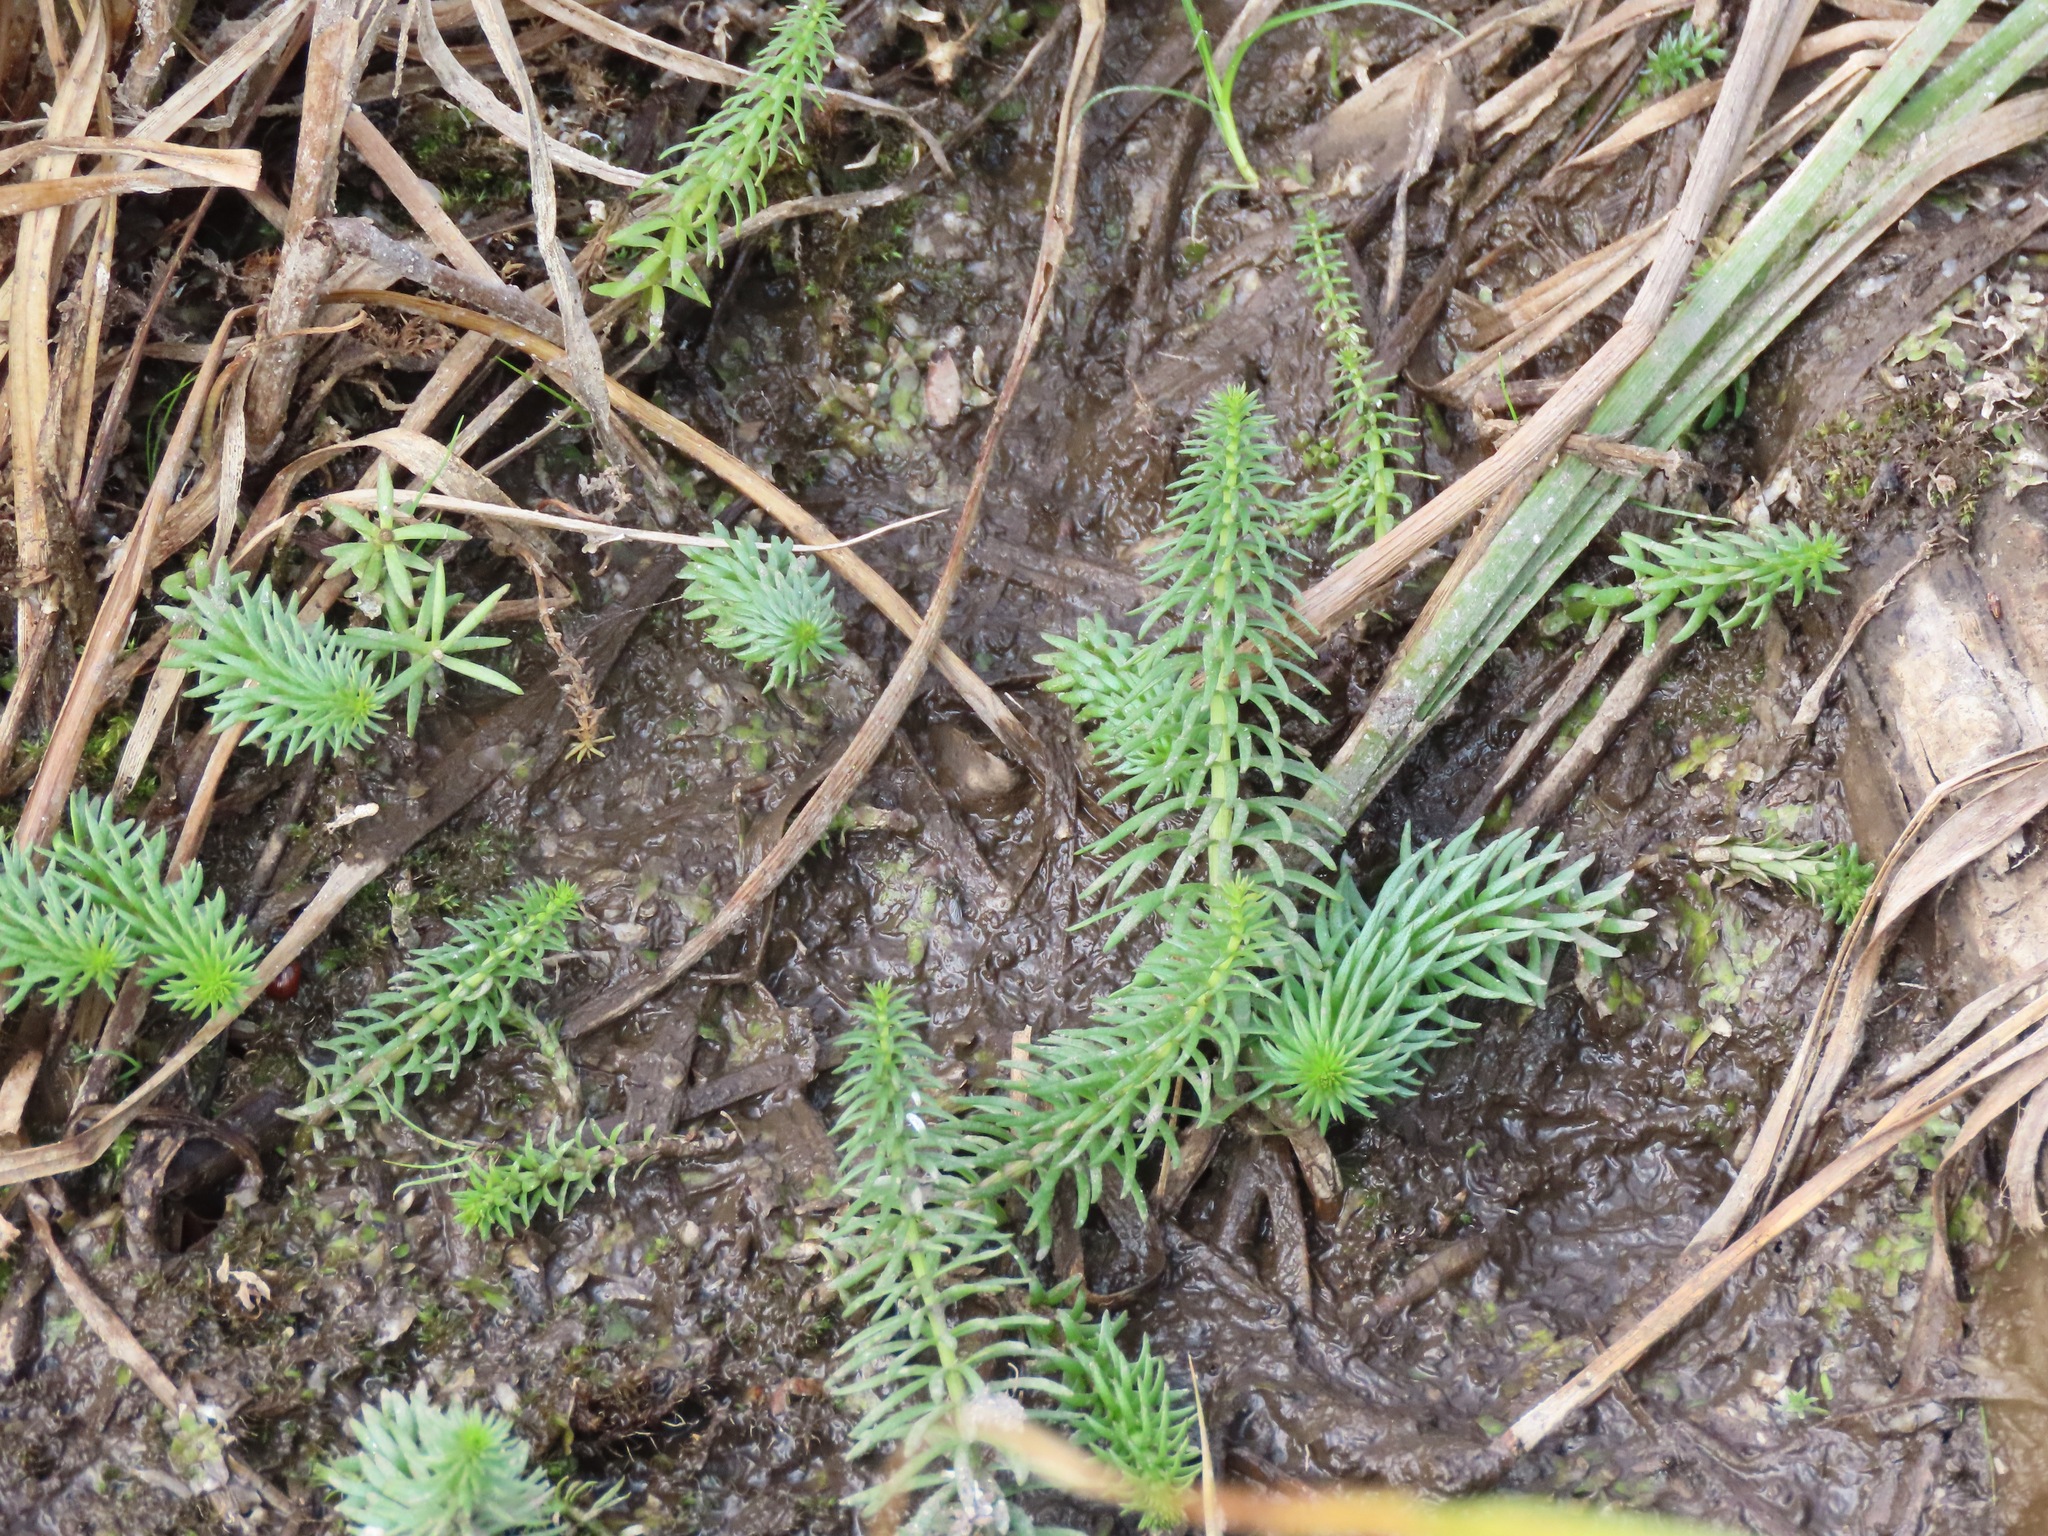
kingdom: Plantae
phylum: Tracheophyta
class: Magnoliopsida
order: Lamiales
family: Plantaginaceae
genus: Hippuris
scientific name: Hippuris vulgaris
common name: Mare's-tail
